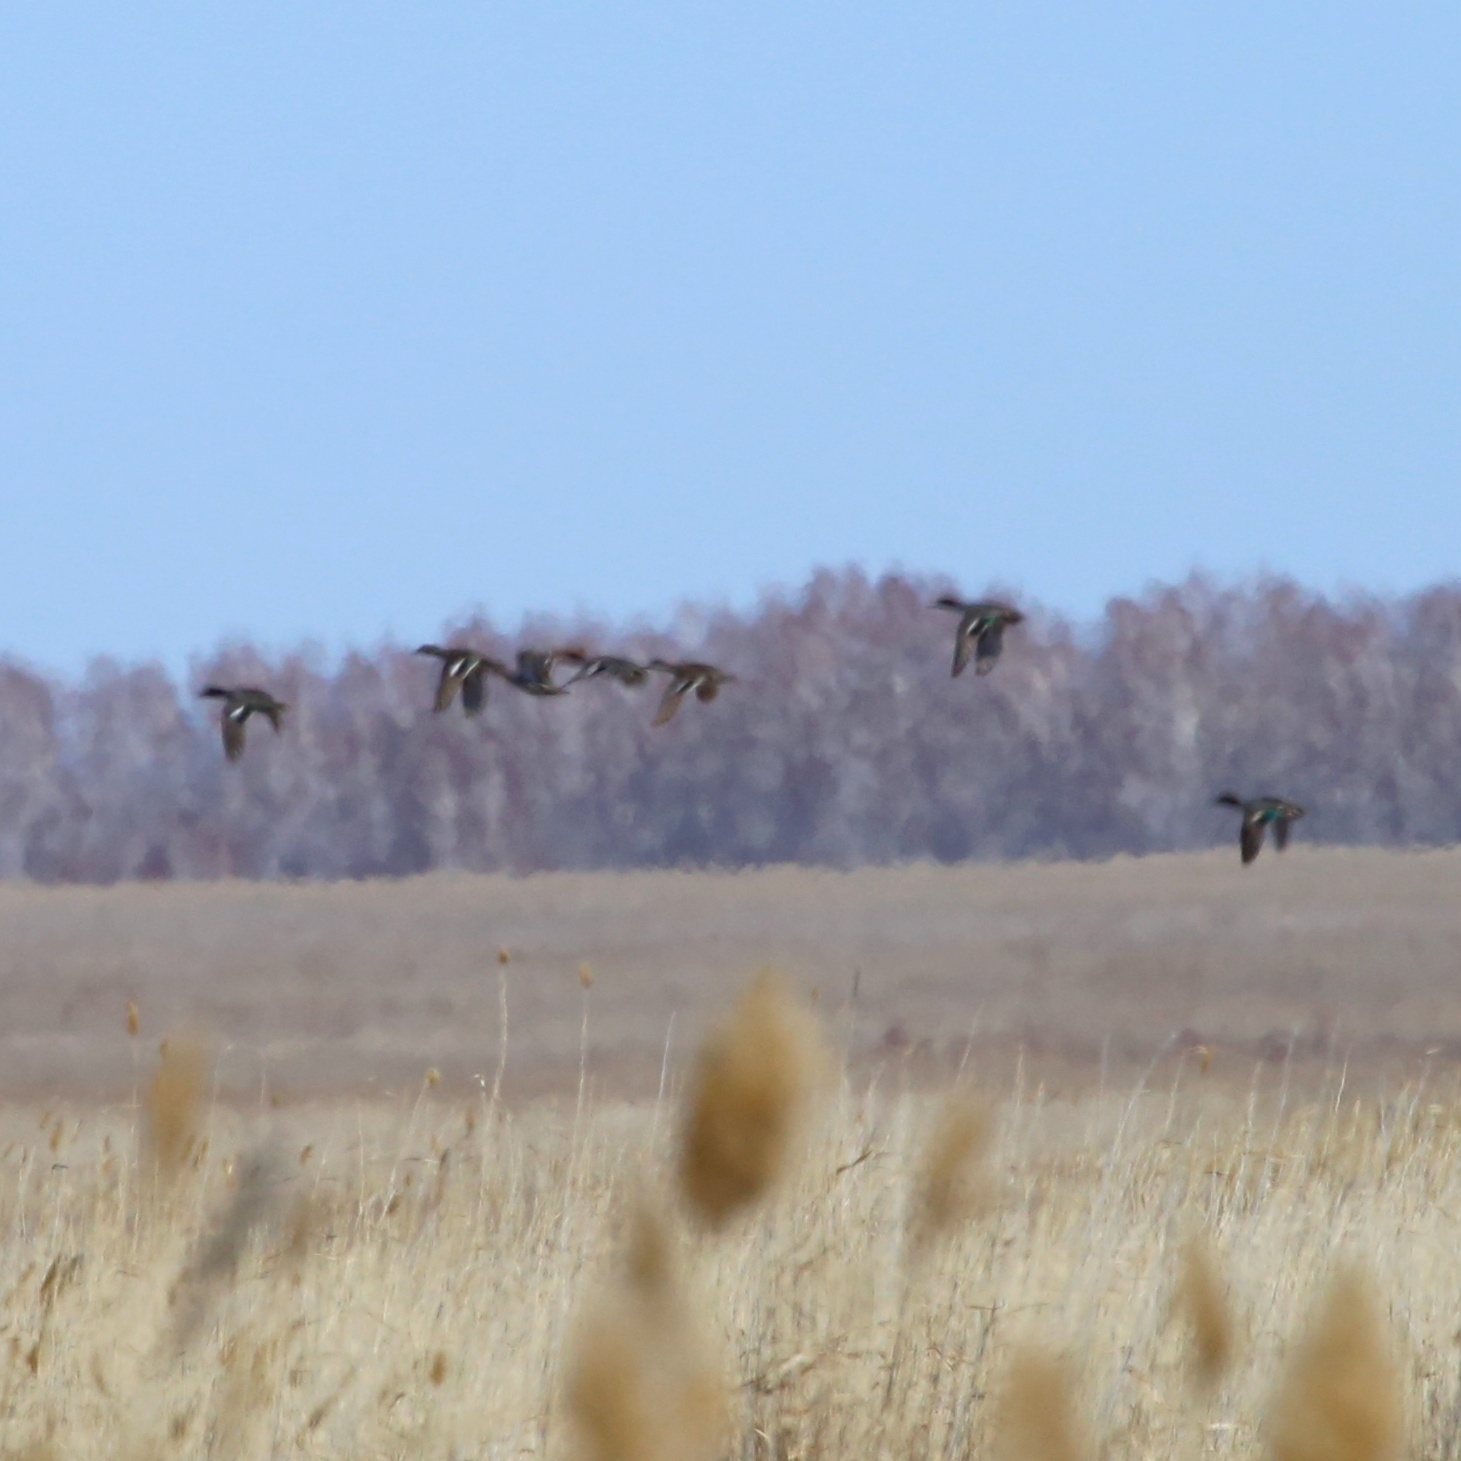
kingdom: Animalia
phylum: Chordata
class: Aves
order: Anseriformes
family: Anatidae
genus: Anas
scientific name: Anas crecca
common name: Eurasian teal
